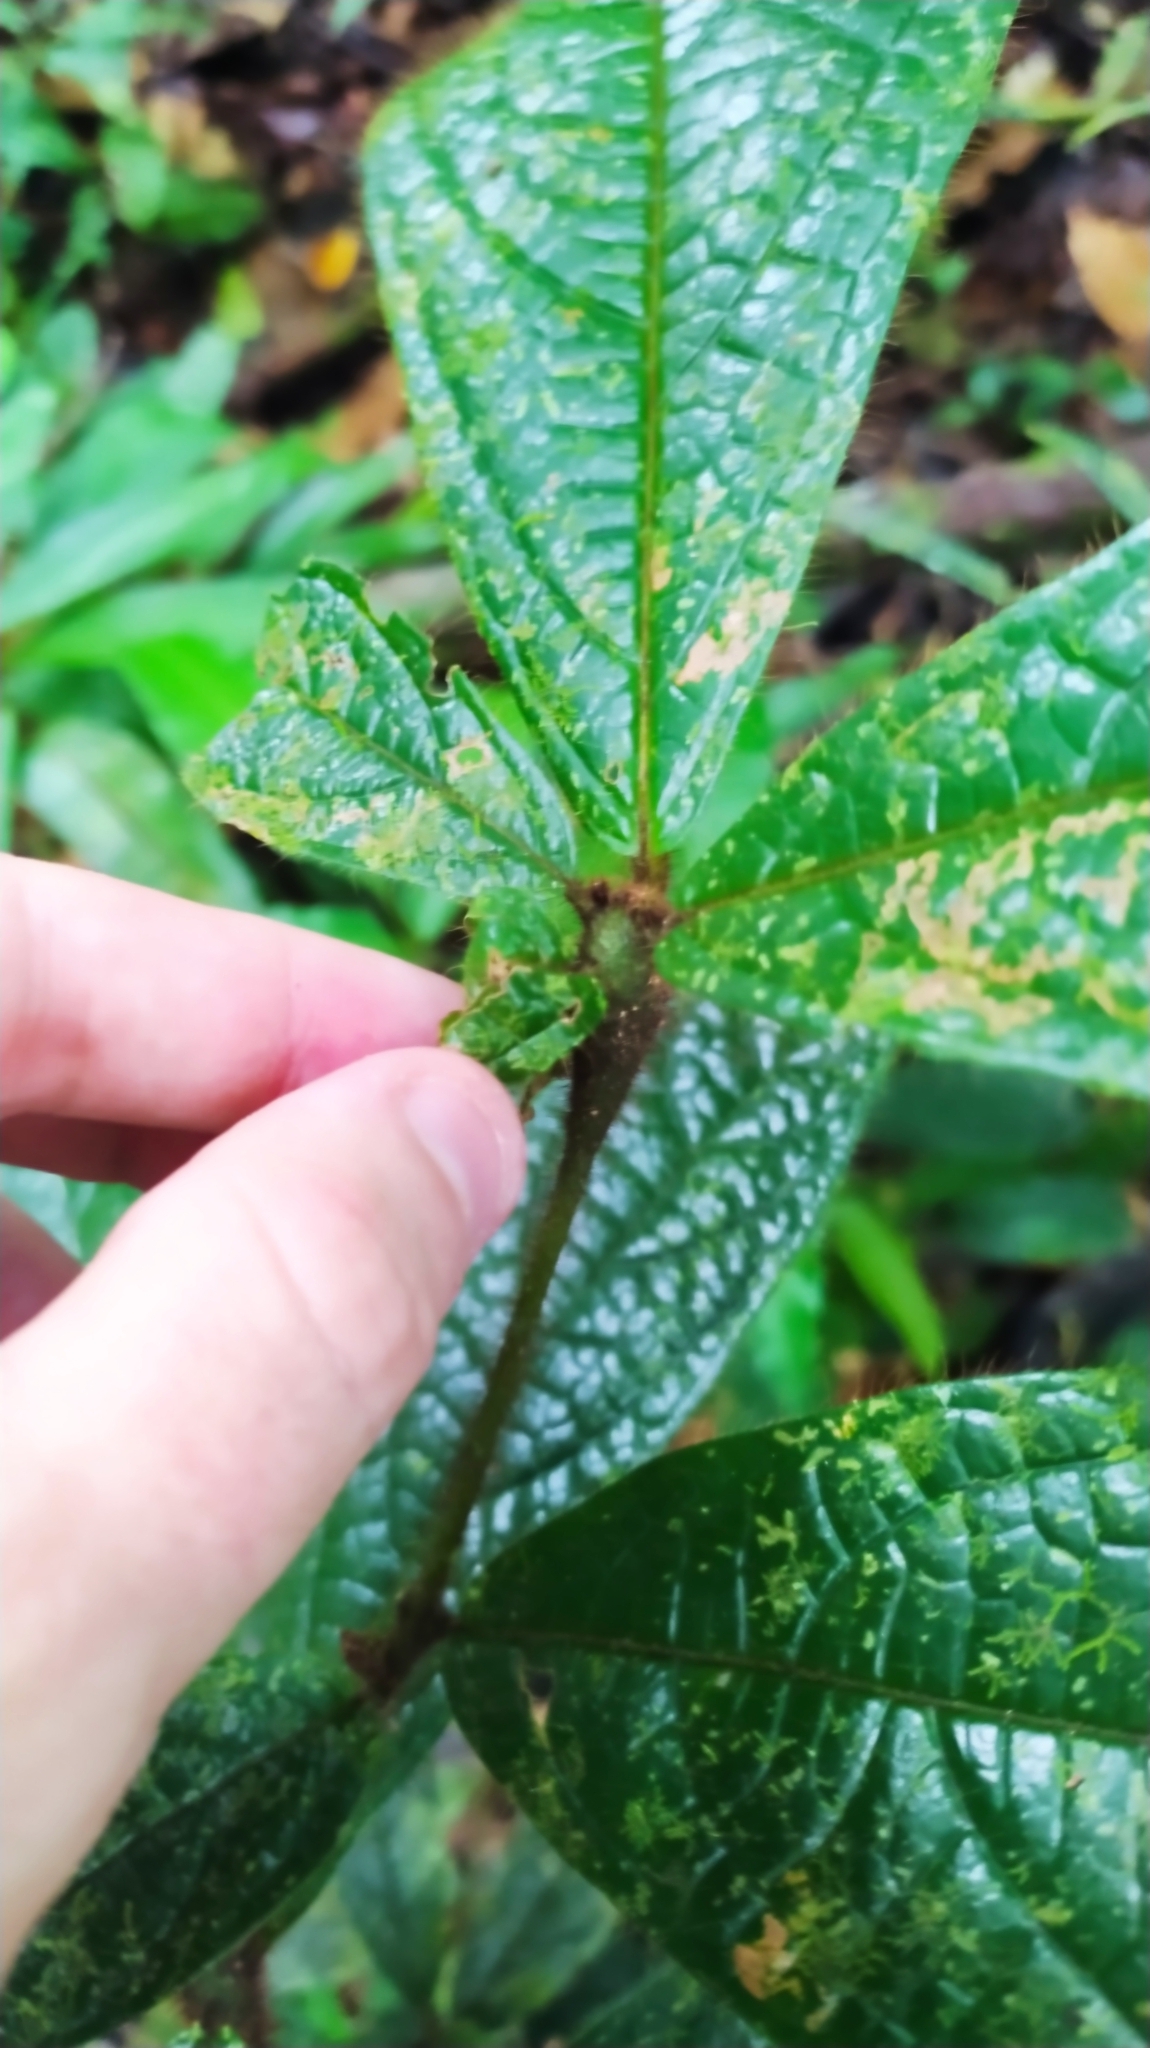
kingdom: Plantae
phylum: Tracheophyta
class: Magnoliopsida
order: Boraginales
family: Cordiaceae
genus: Cordia
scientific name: Cordia nodosa
